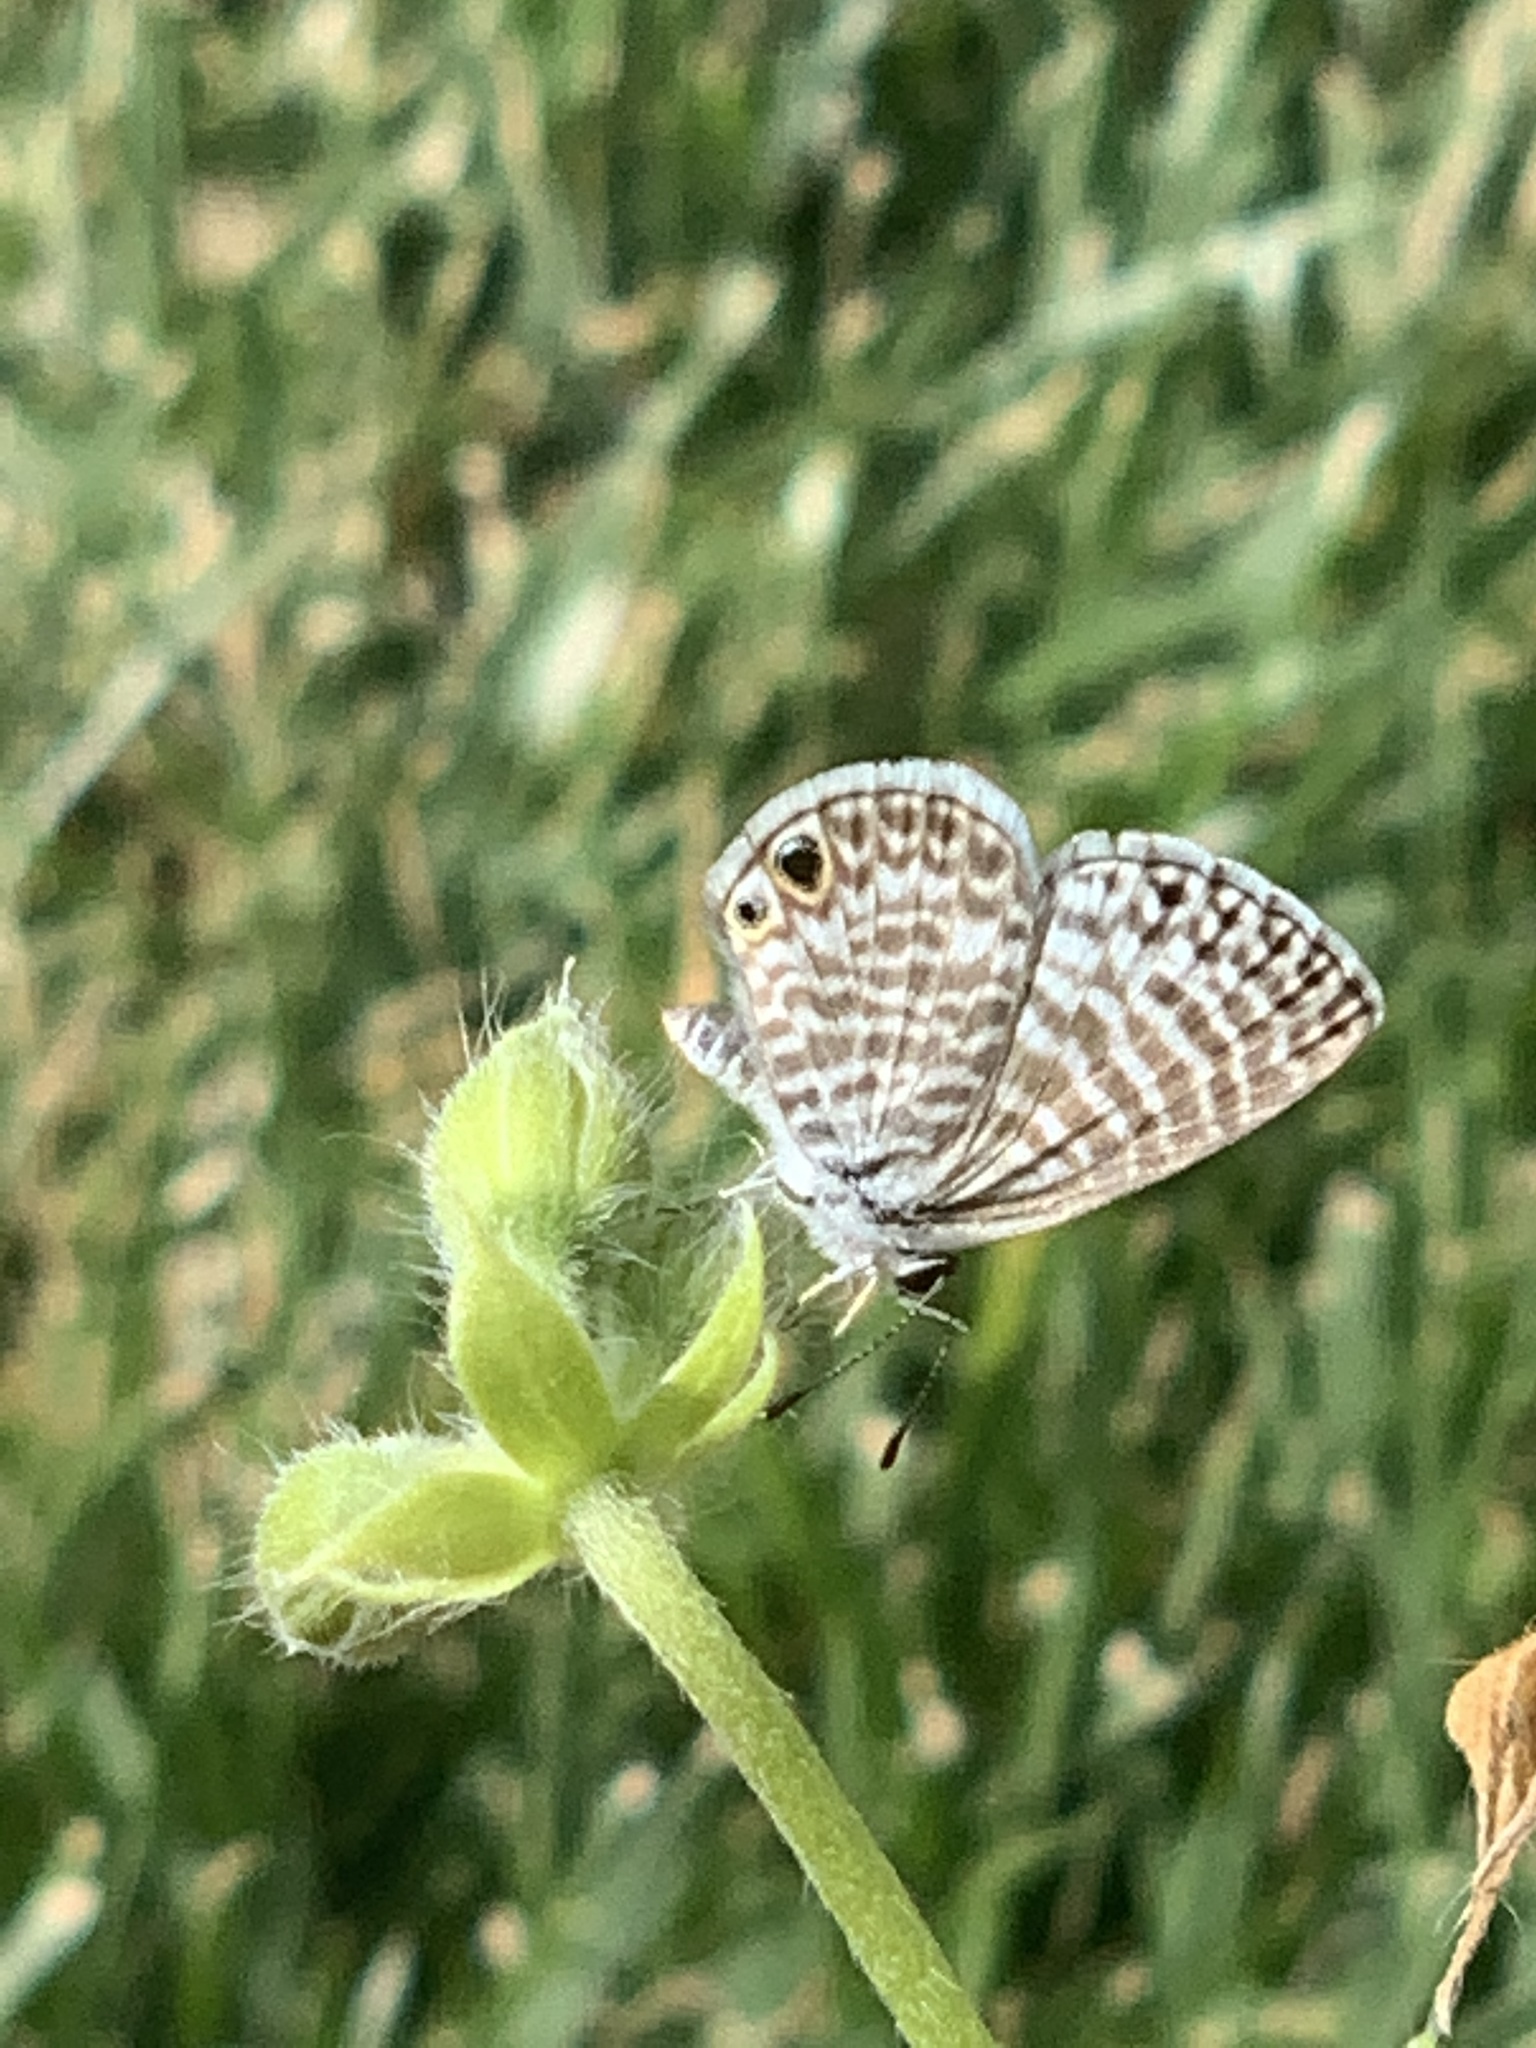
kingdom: Animalia
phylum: Arthropoda
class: Insecta
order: Lepidoptera
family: Lycaenidae
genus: Leptotes
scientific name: Leptotes marina
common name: Marine blue
